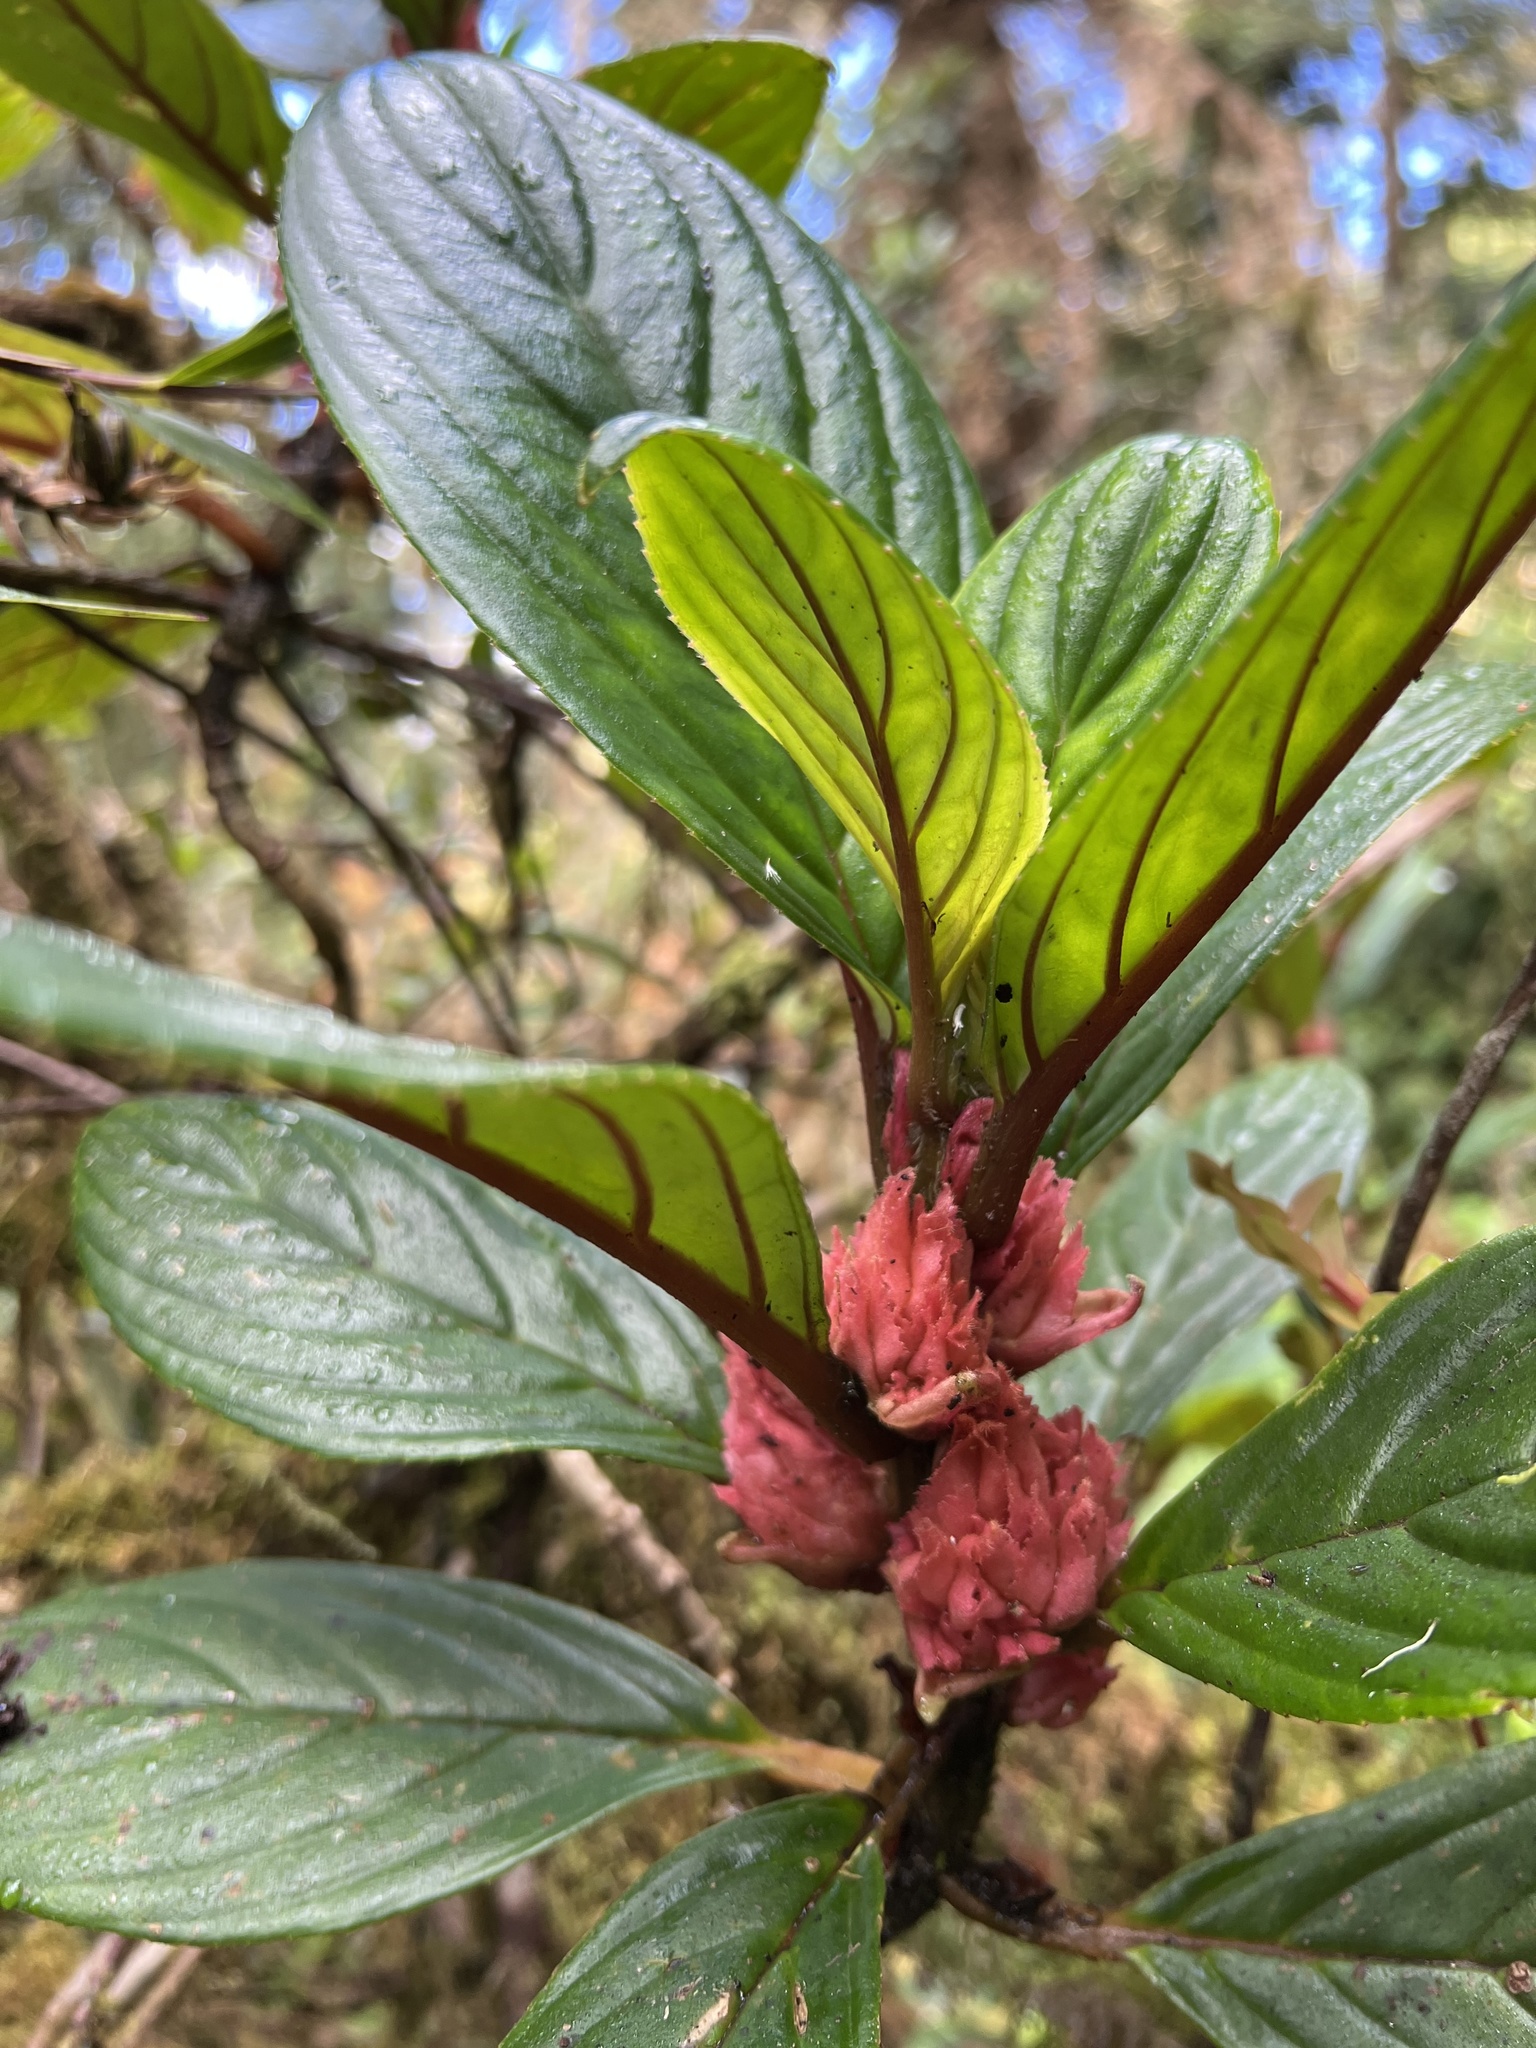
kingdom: Plantae
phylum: Tracheophyta
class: Magnoliopsida
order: Lamiales
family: Gesneriaceae
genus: Glossoloma
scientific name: Glossoloma ichthyoderma
